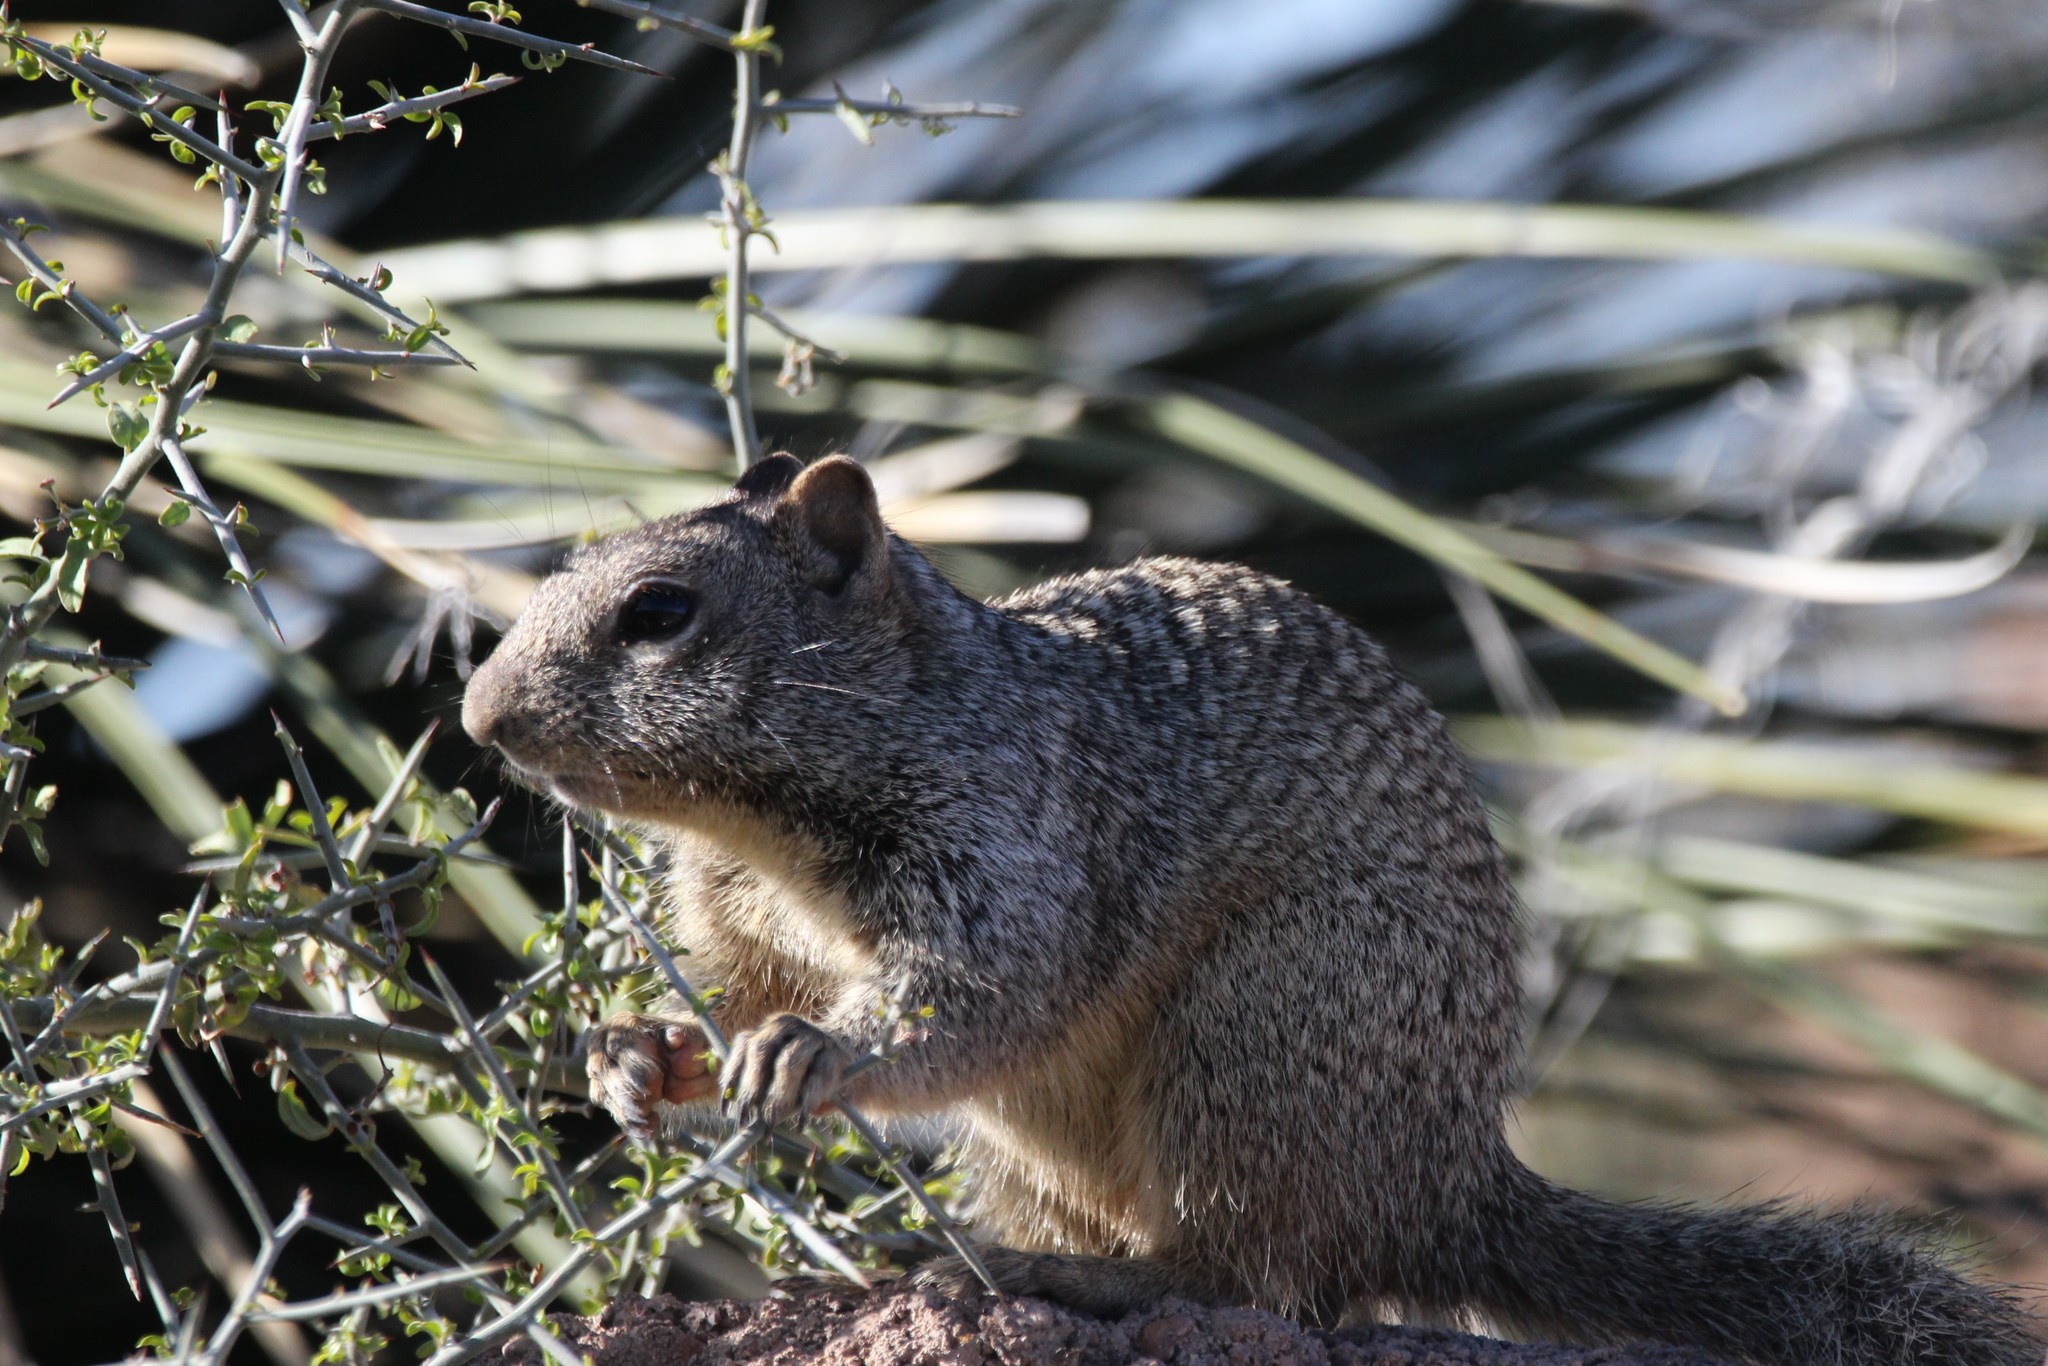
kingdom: Animalia
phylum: Chordata
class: Mammalia
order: Rodentia
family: Sciuridae
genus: Otospermophilus
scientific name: Otospermophilus variegatus
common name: Rock squirrel
